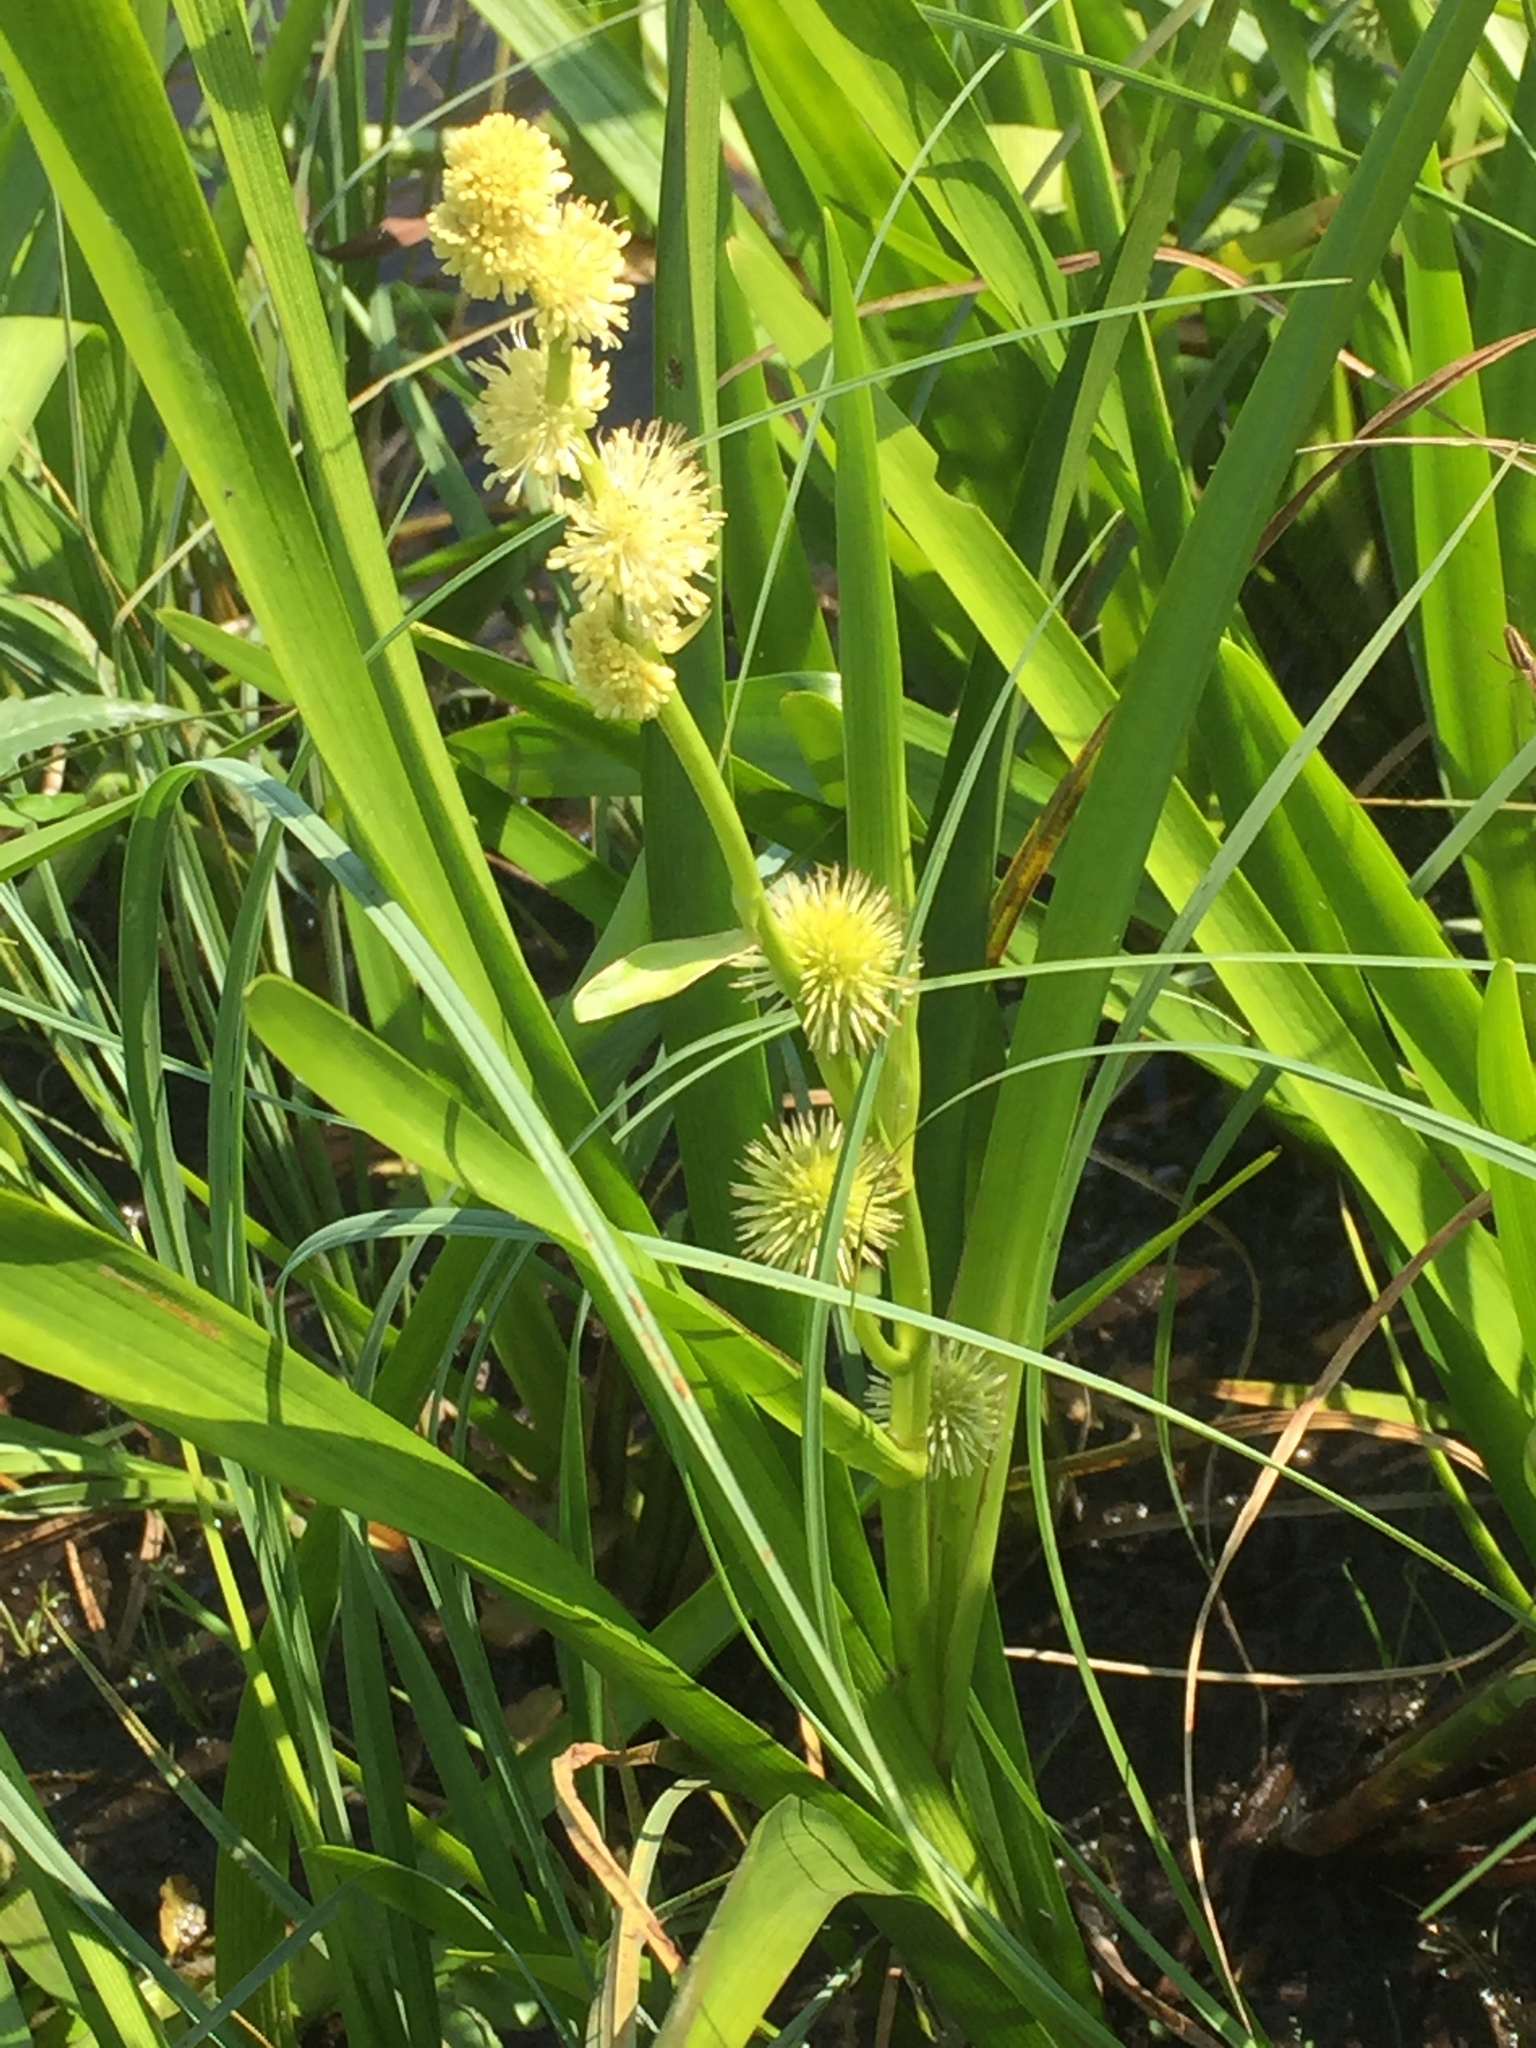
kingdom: Plantae
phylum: Tracheophyta
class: Liliopsida
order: Poales
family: Typhaceae
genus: Sparganium
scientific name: Sparganium emersum
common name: Unbranched bur-reed
